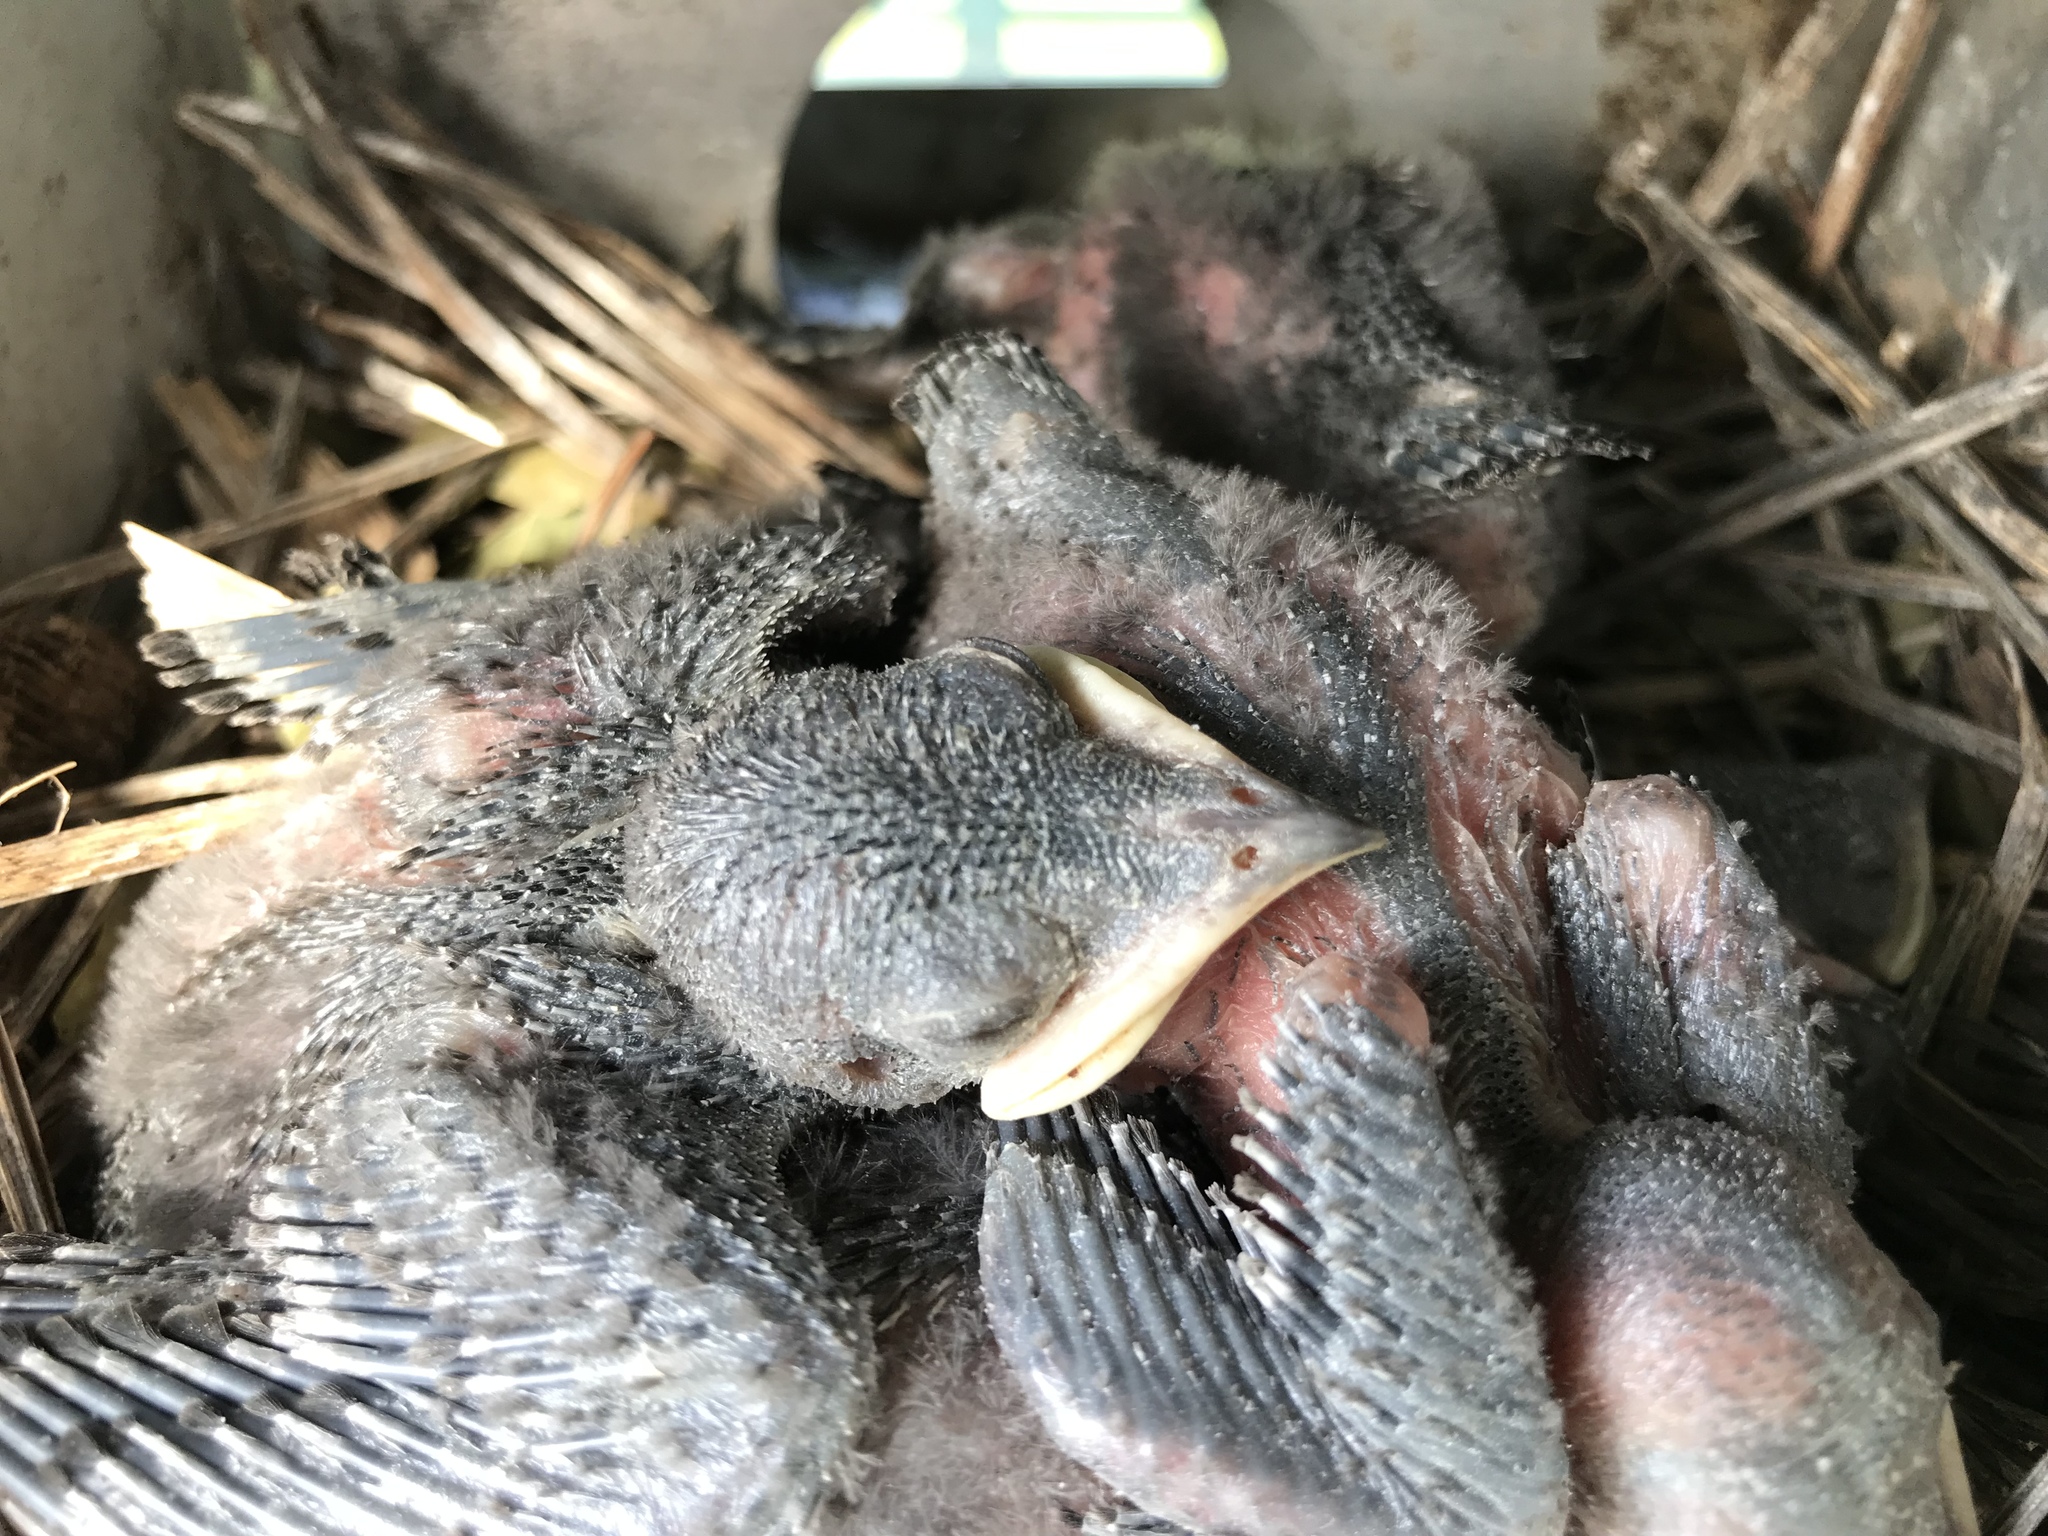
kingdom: Animalia
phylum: Chordata
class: Aves
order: Passeriformes
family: Hirundinidae
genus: Progne
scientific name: Progne subis
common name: Purple martin
